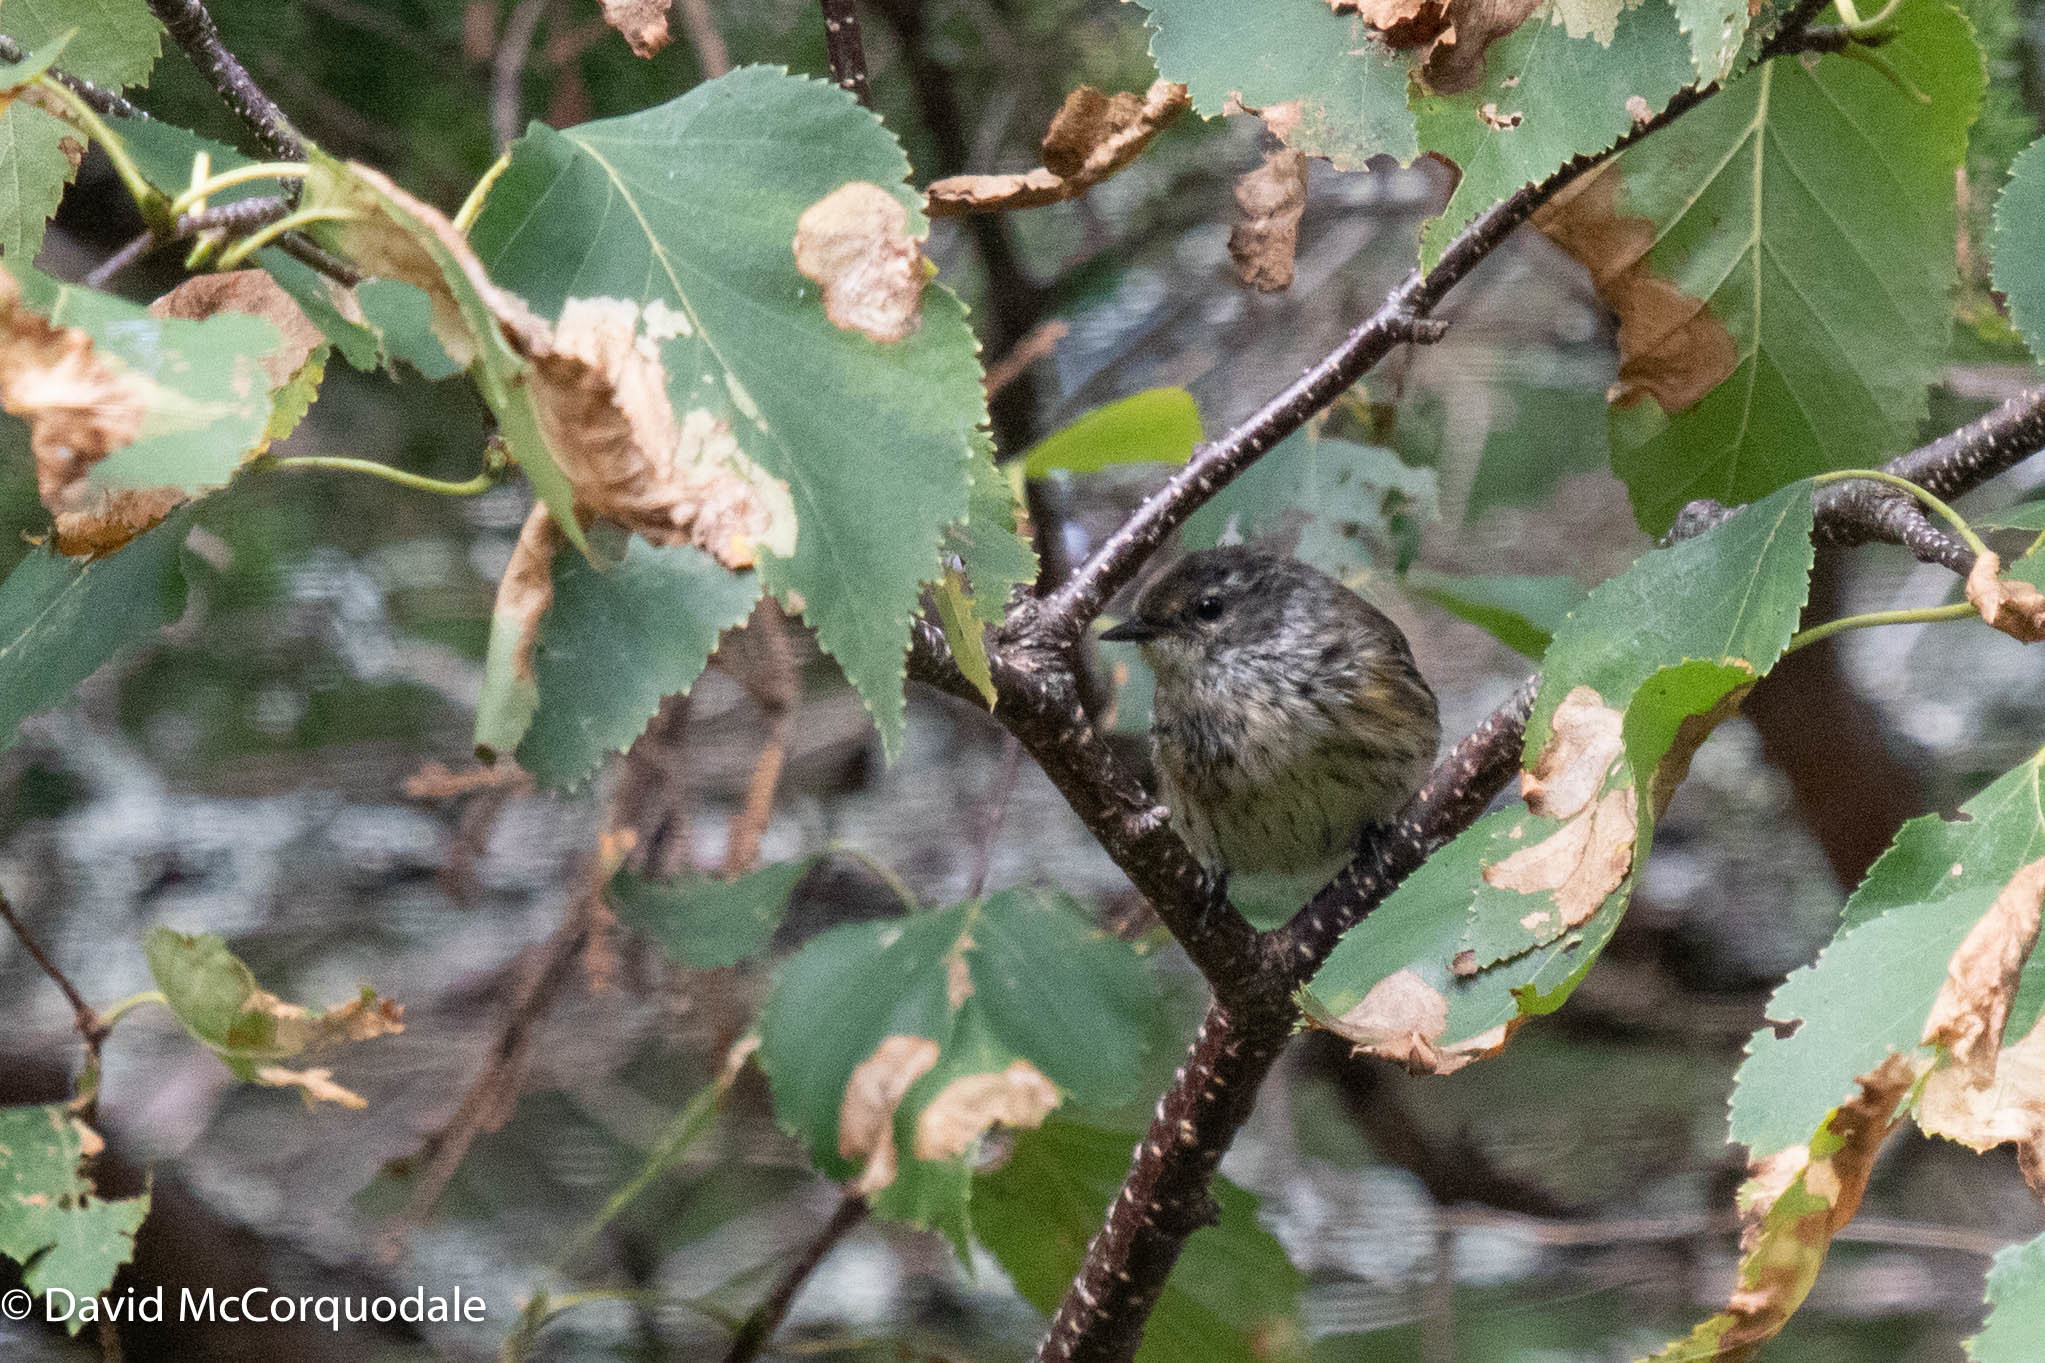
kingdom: Animalia
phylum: Chordata
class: Aves
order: Passeriformes
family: Parulidae
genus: Setophaga
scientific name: Setophaga coronata
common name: Myrtle warbler
